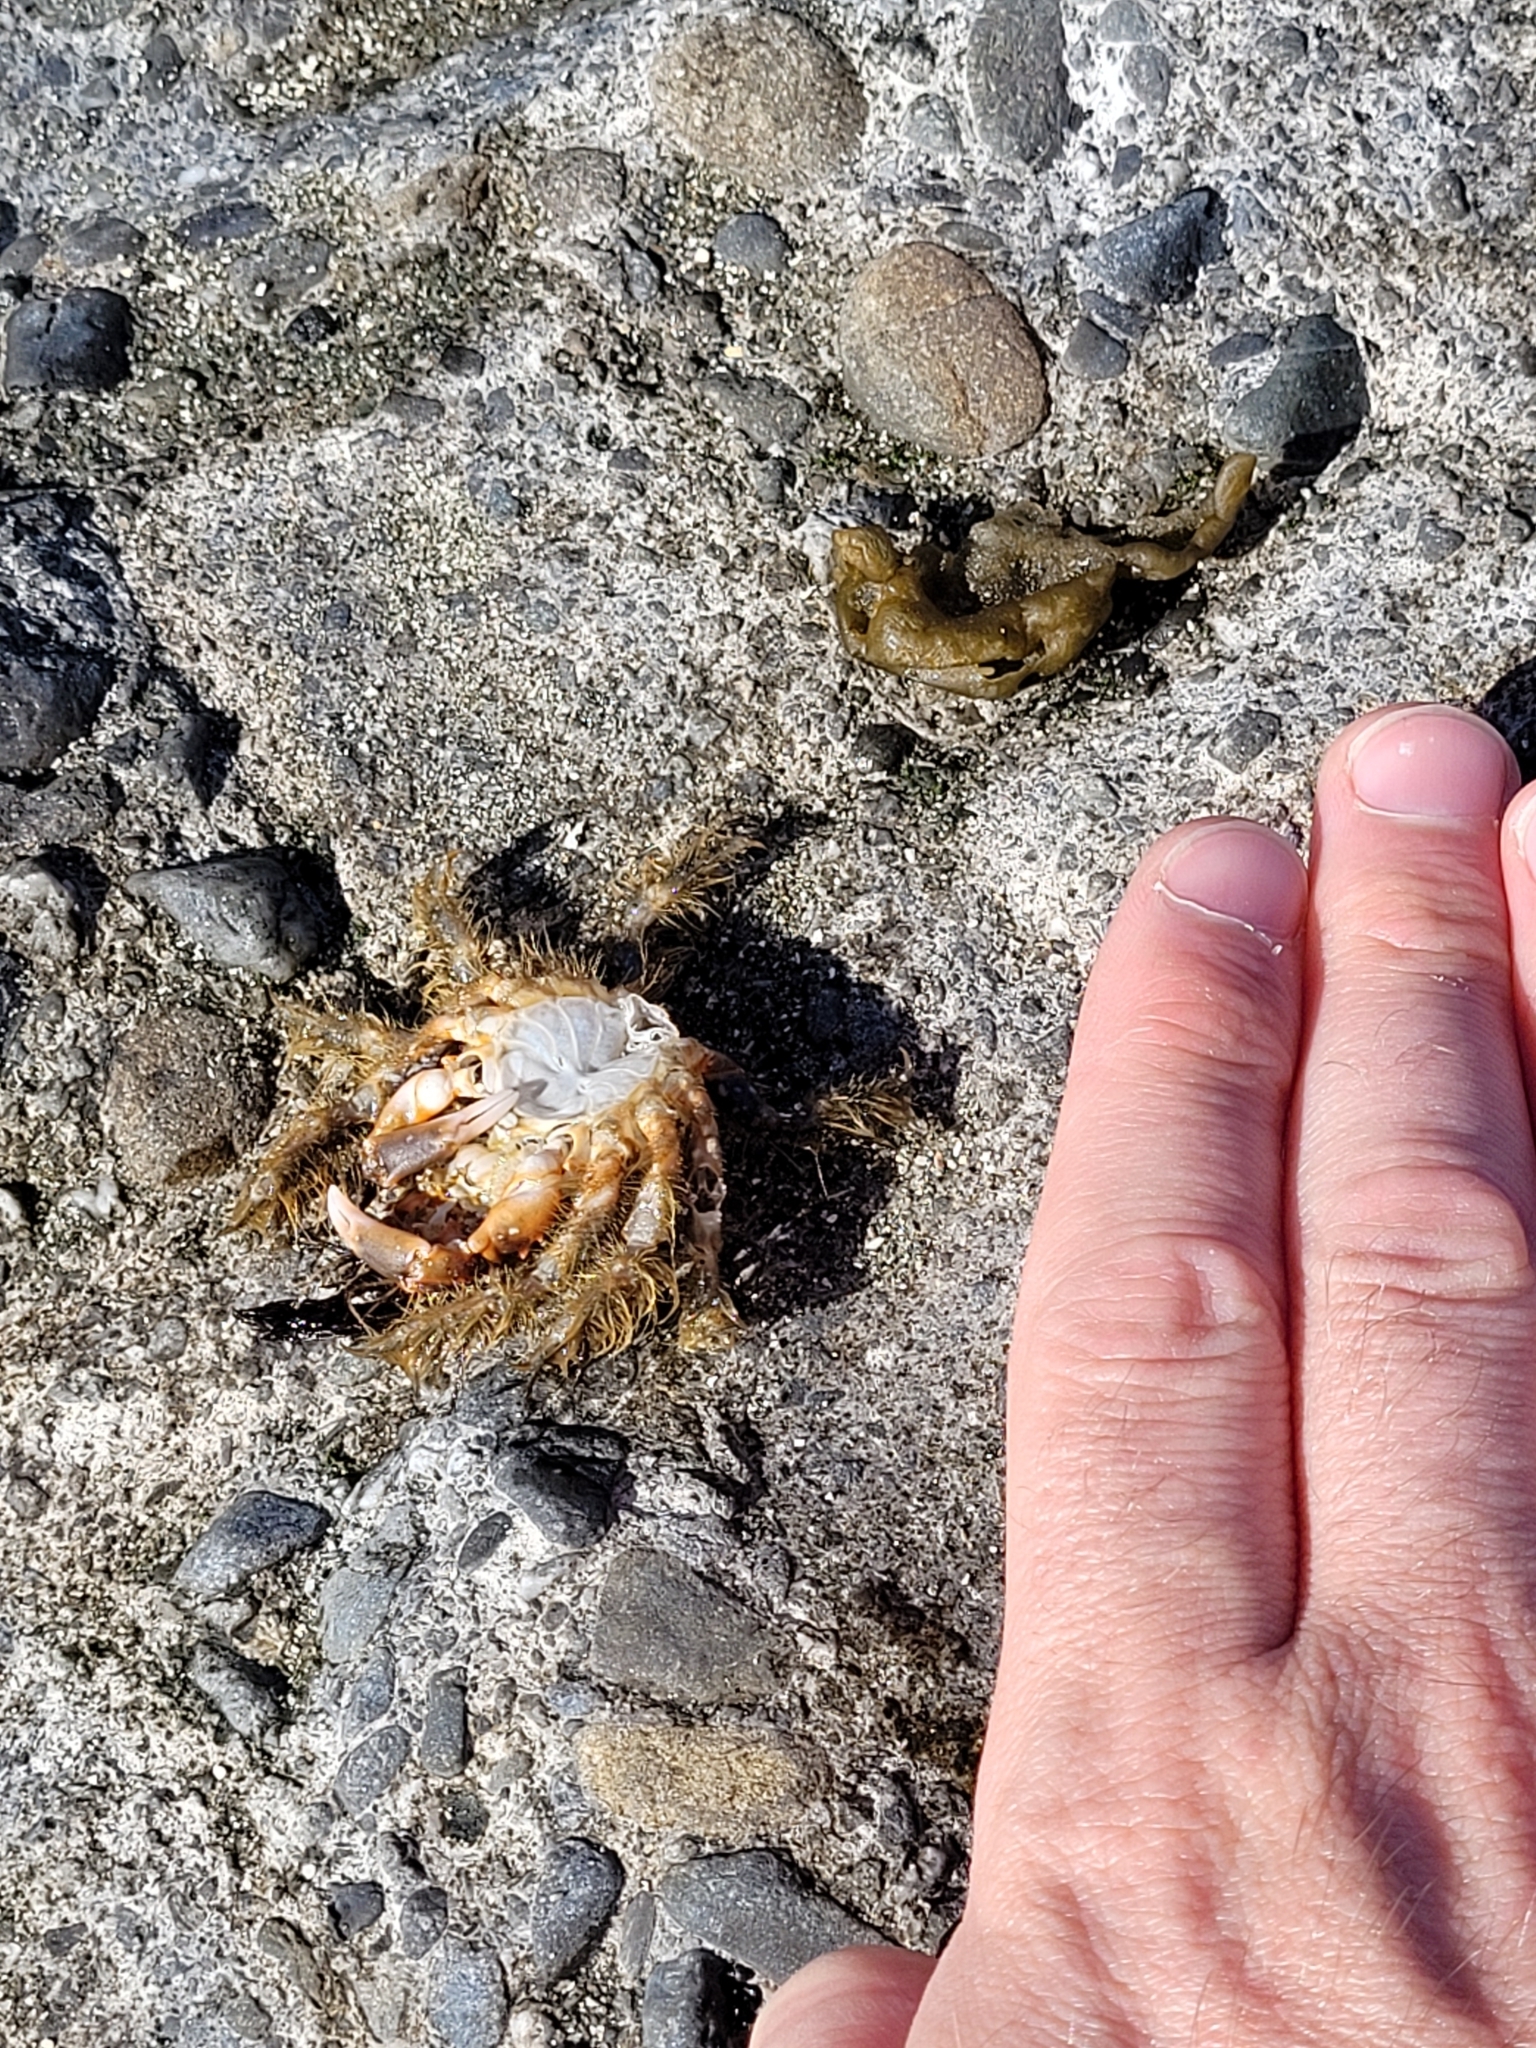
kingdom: Animalia
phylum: Arthropoda
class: Malacostraca
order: Decapoda
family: Majidae
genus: Notomithrax
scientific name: Notomithrax ursus
